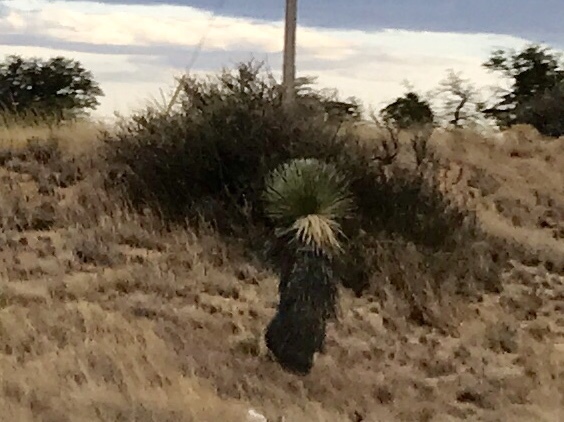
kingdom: Plantae
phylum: Tracheophyta
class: Liliopsida
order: Asparagales
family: Asparagaceae
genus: Yucca
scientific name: Yucca elata
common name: Palmella
